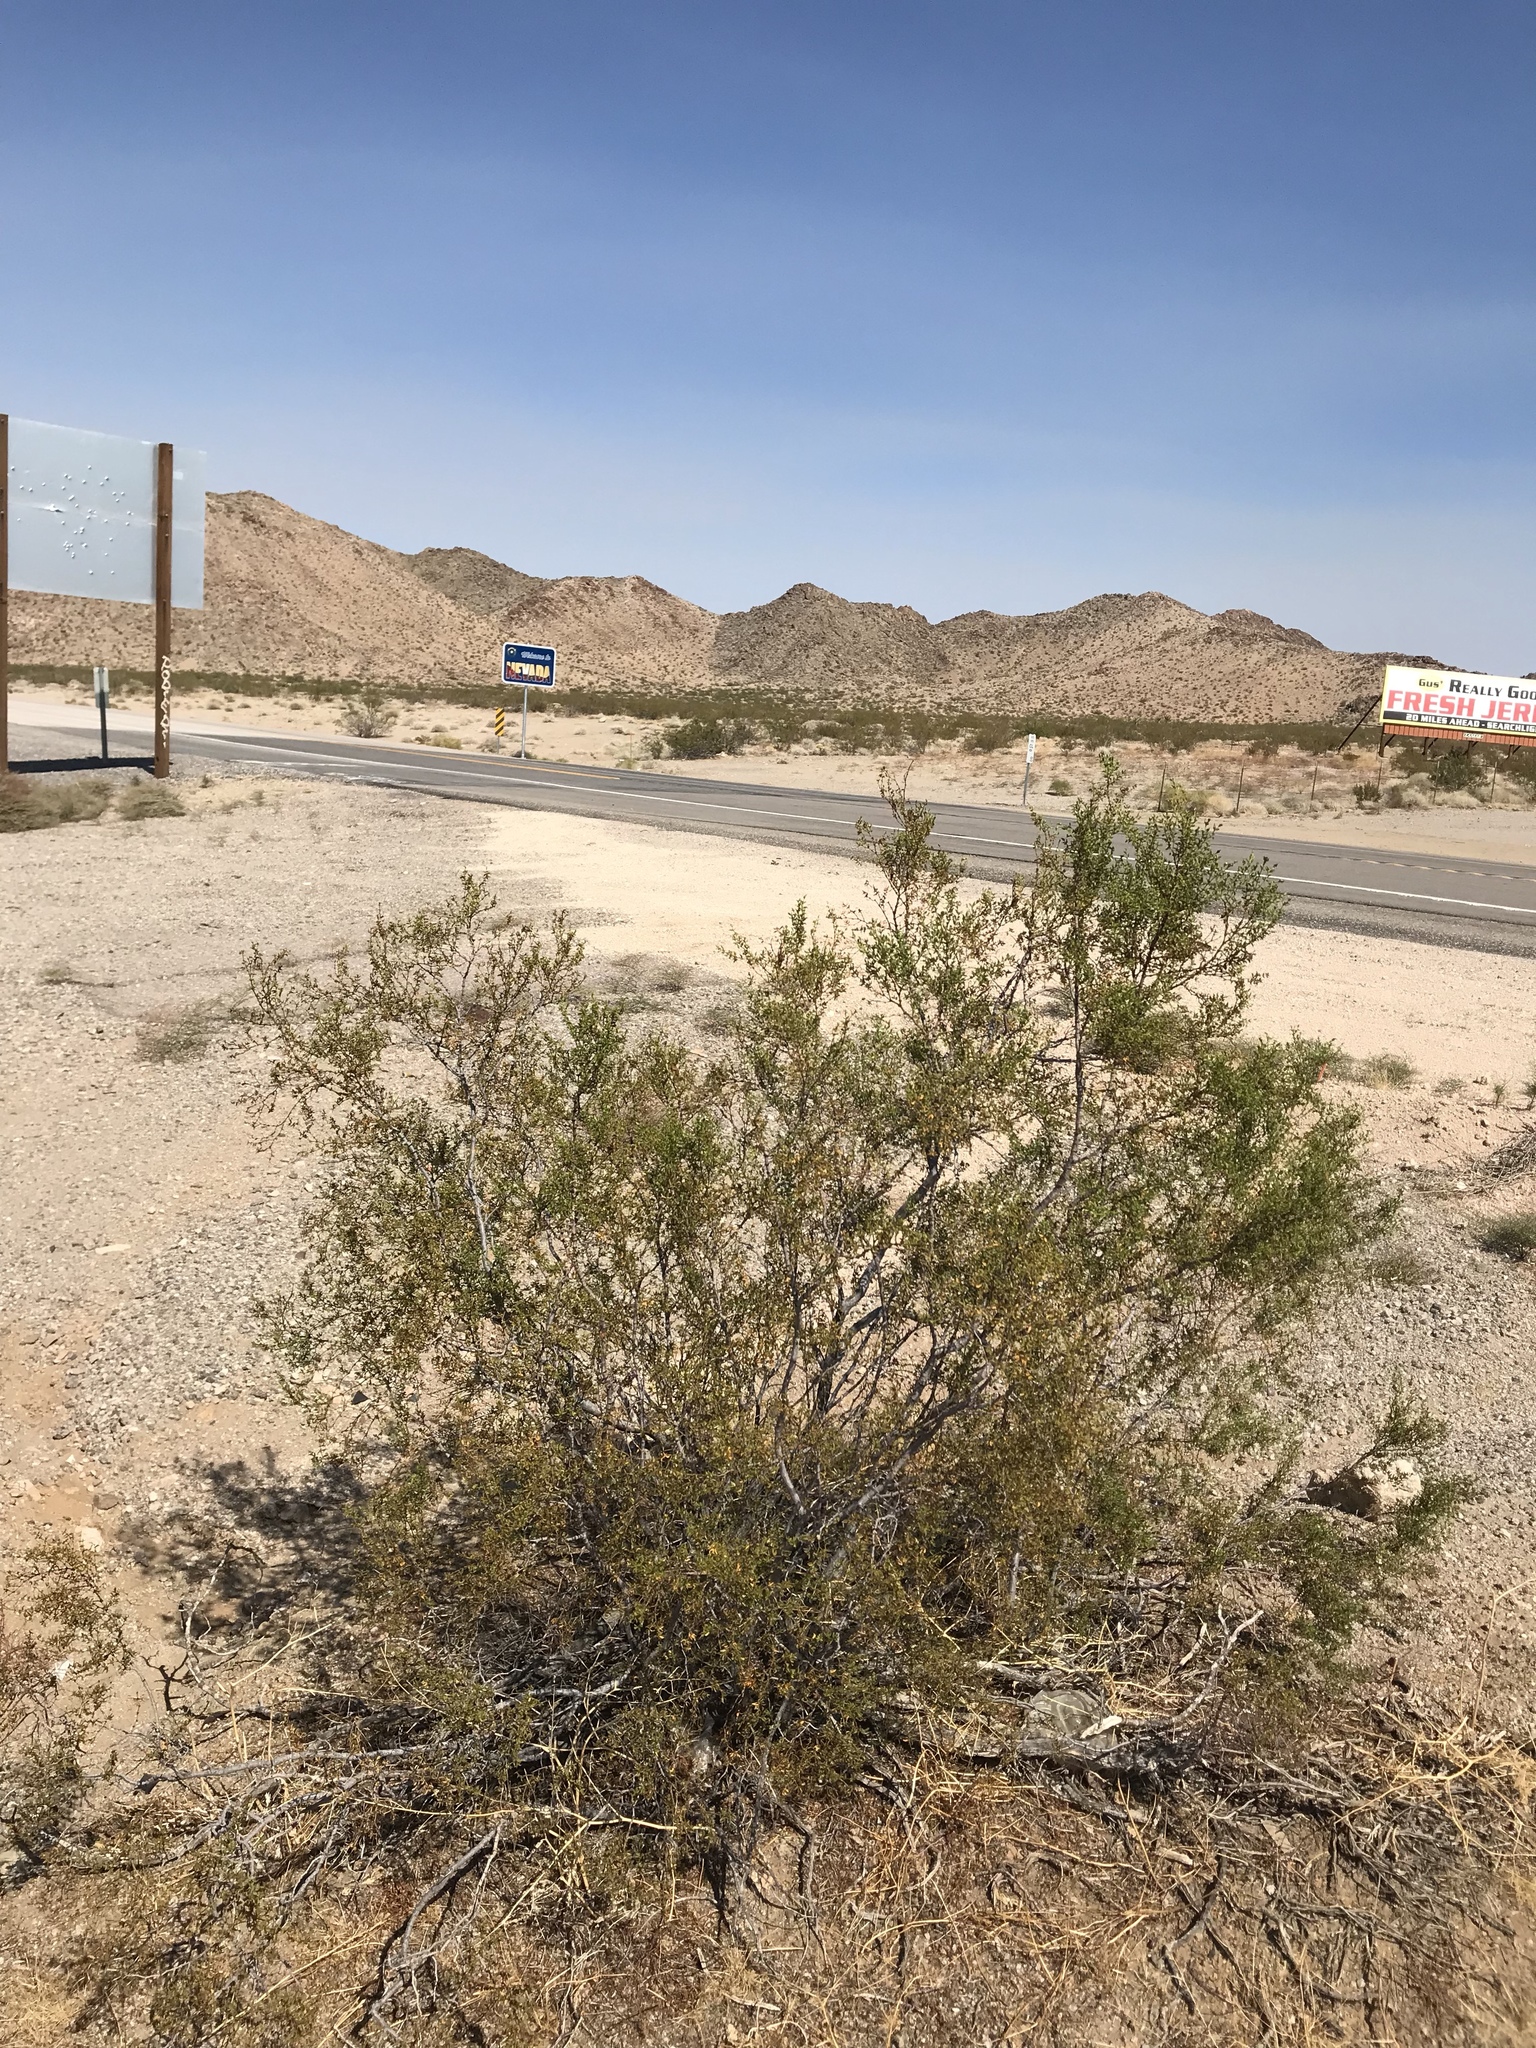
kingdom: Plantae
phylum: Tracheophyta
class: Magnoliopsida
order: Zygophyllales
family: Zygophyllaceae
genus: Larrea
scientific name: Larrea tridentata
